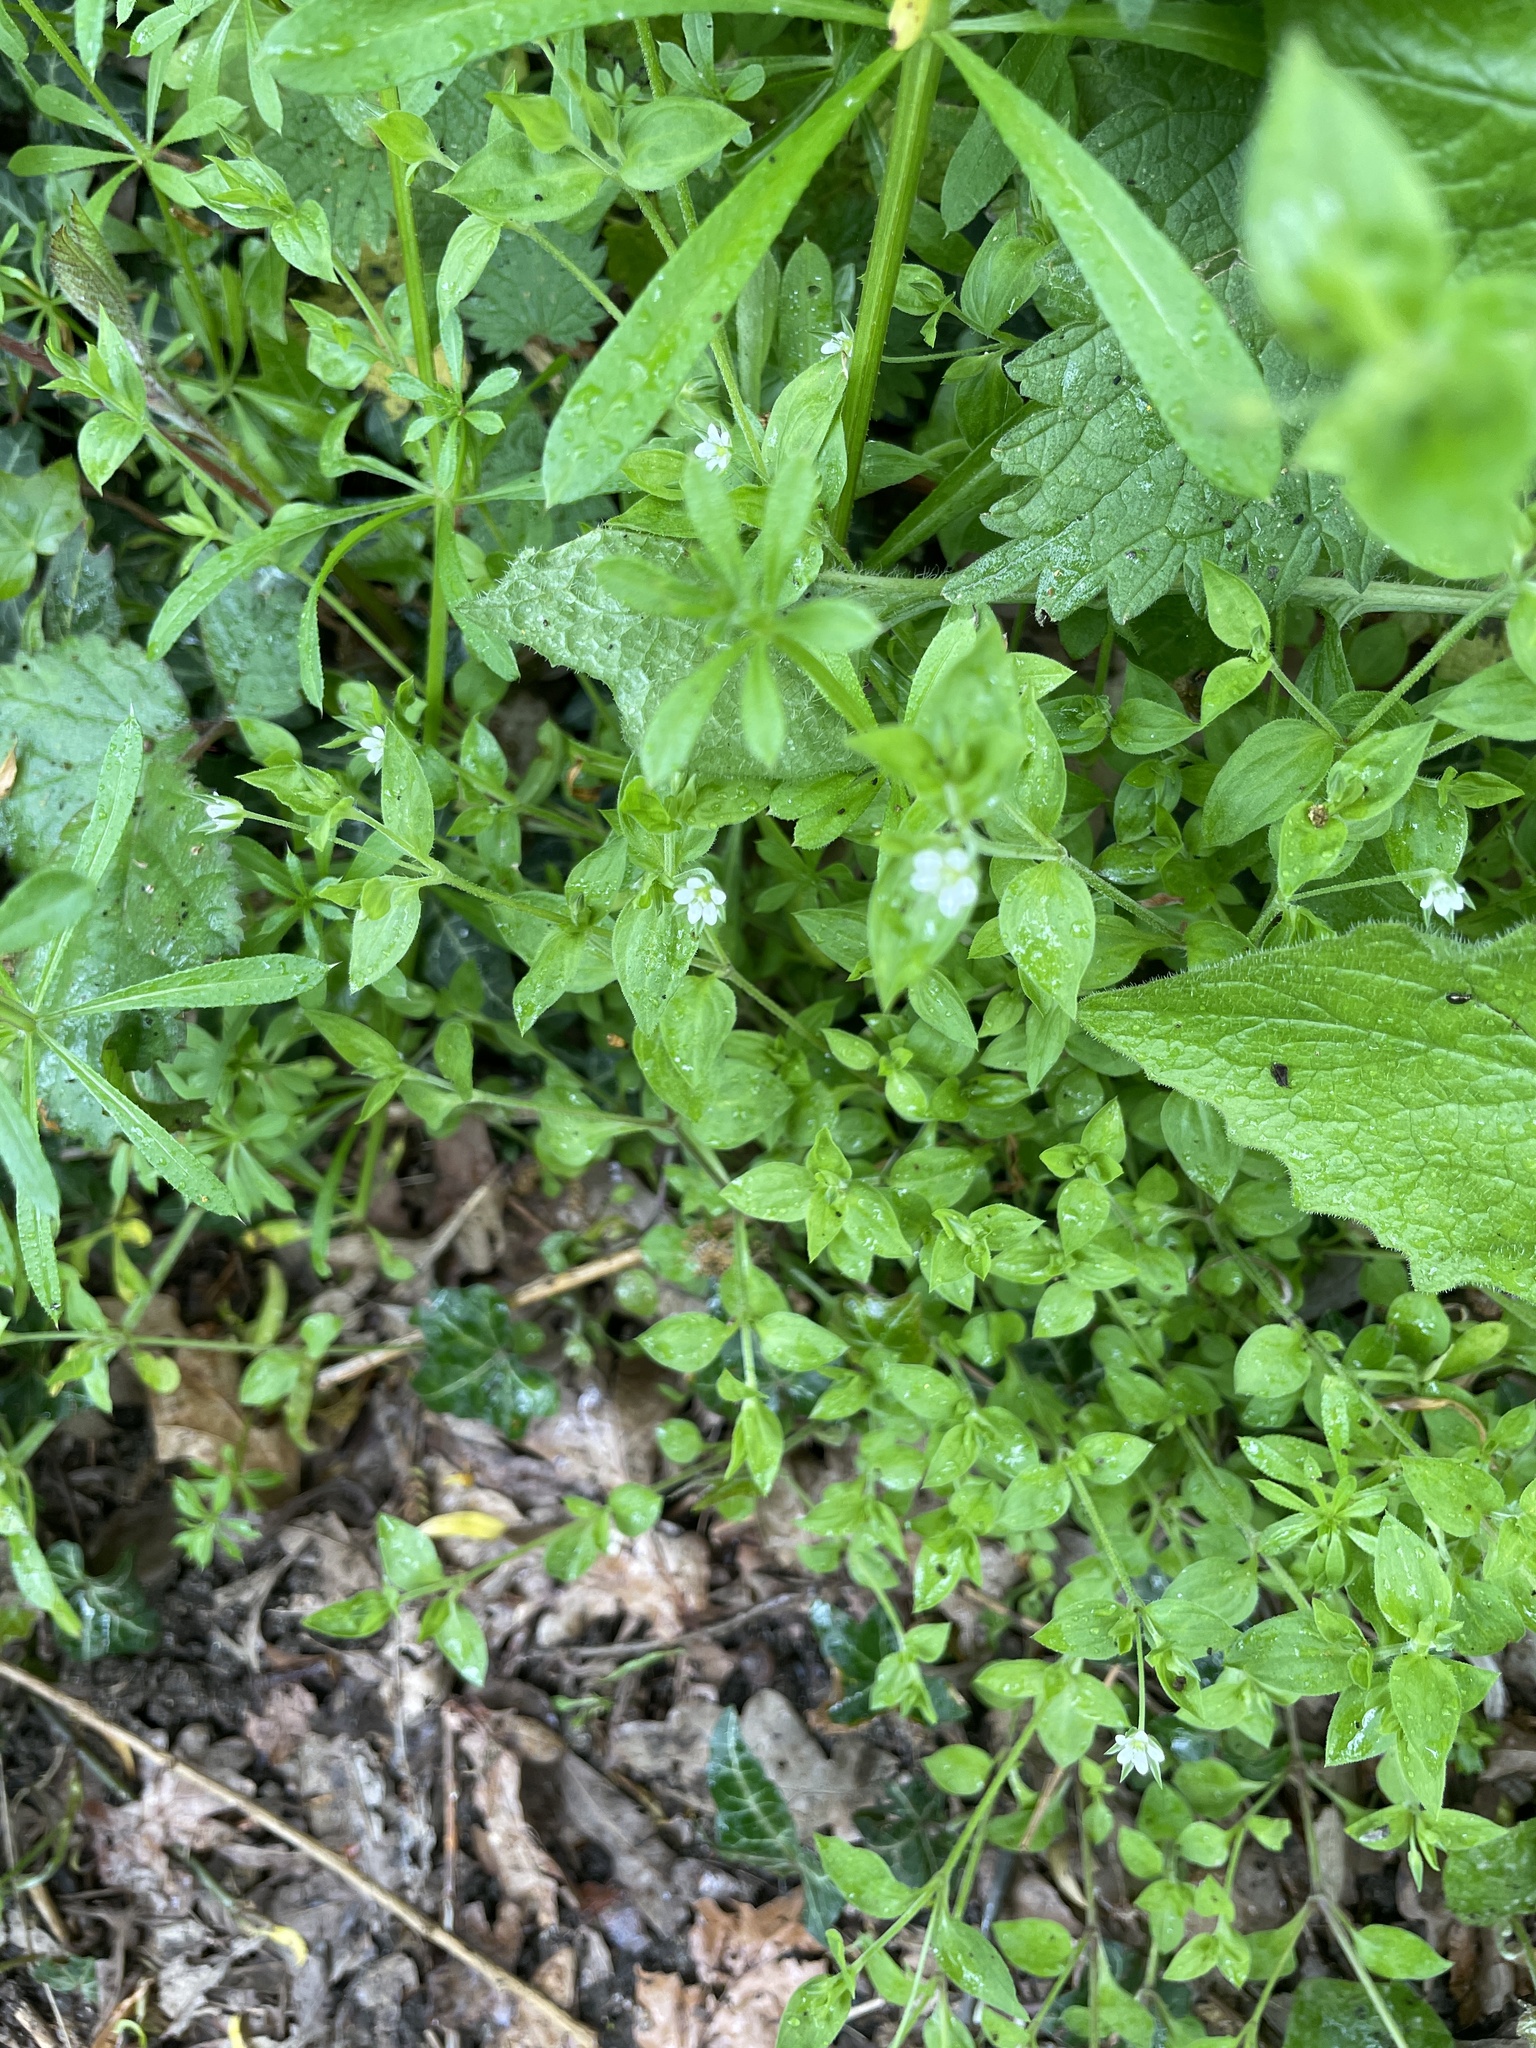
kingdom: Plantae
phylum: Tracheophyta
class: Magnoliopsida
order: Caryophyllales
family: Caryophyllaceae
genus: Moehringia
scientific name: Moehringia trinervia
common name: Three-nerved sandwort
